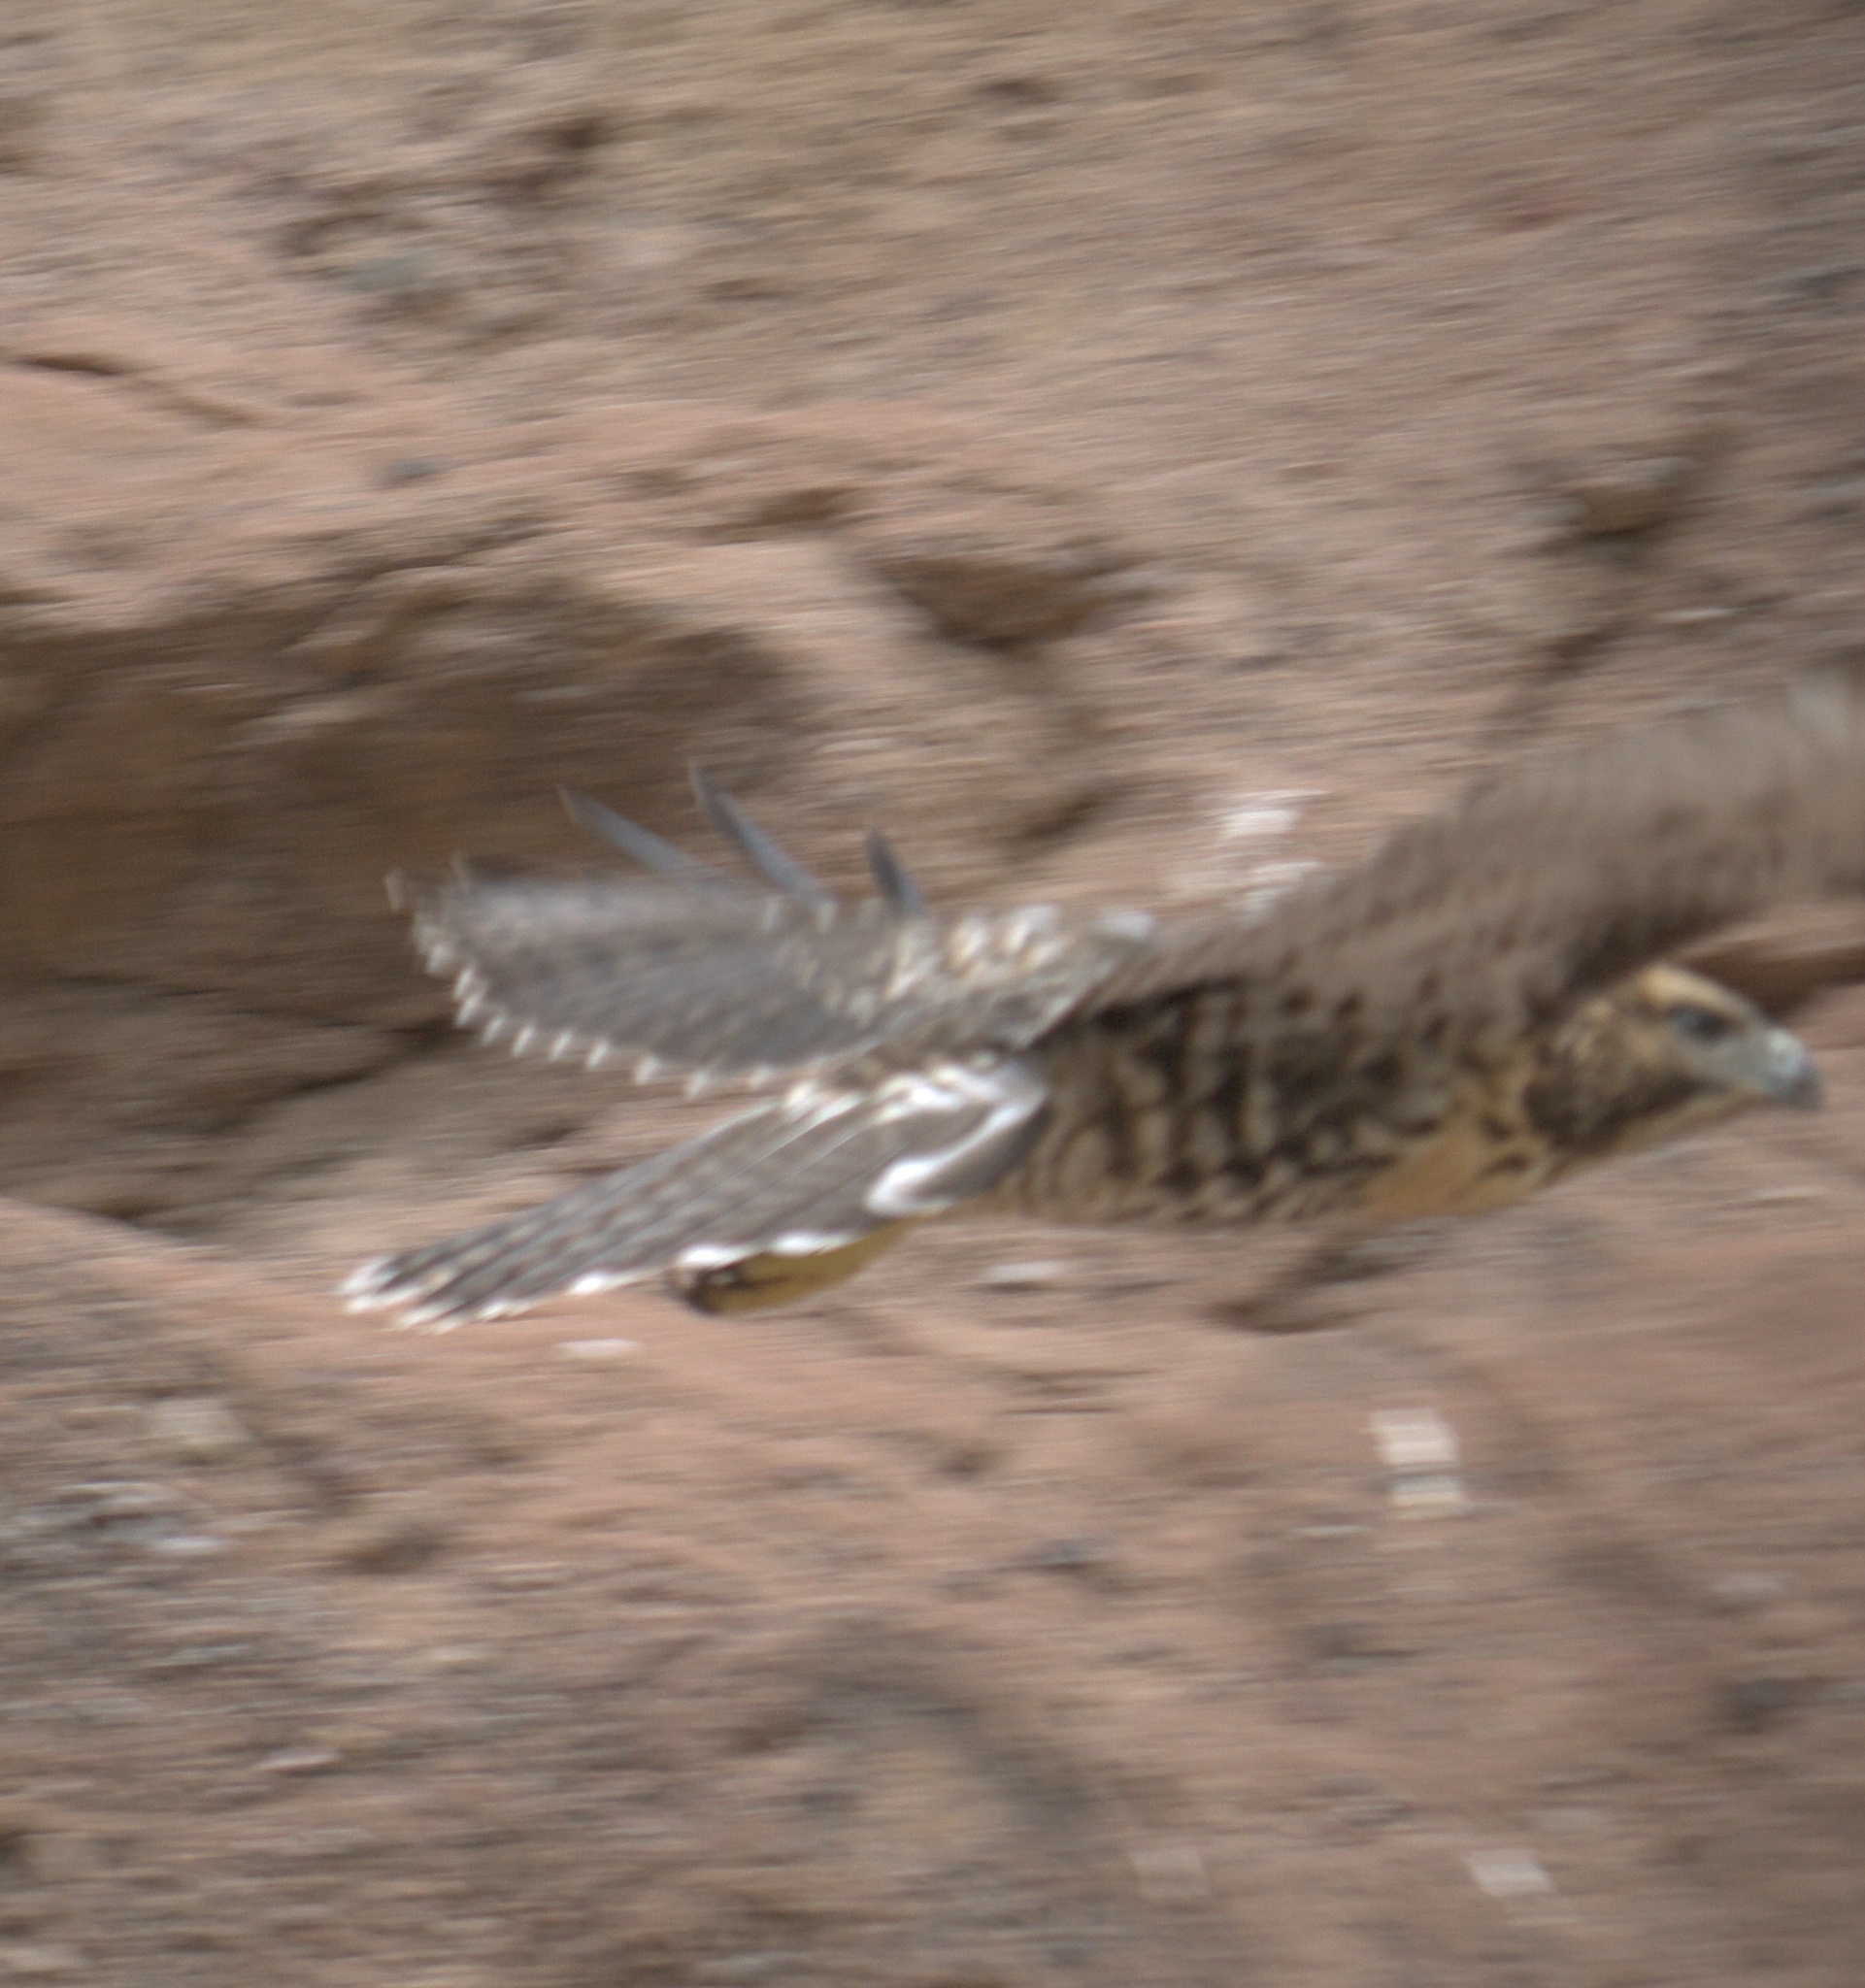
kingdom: Animalia
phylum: Chordata
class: Aves
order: Accipitriformes
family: Accipitridae
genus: Buteo
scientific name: Buteo jamaicensis
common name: Red-tailed hawk
